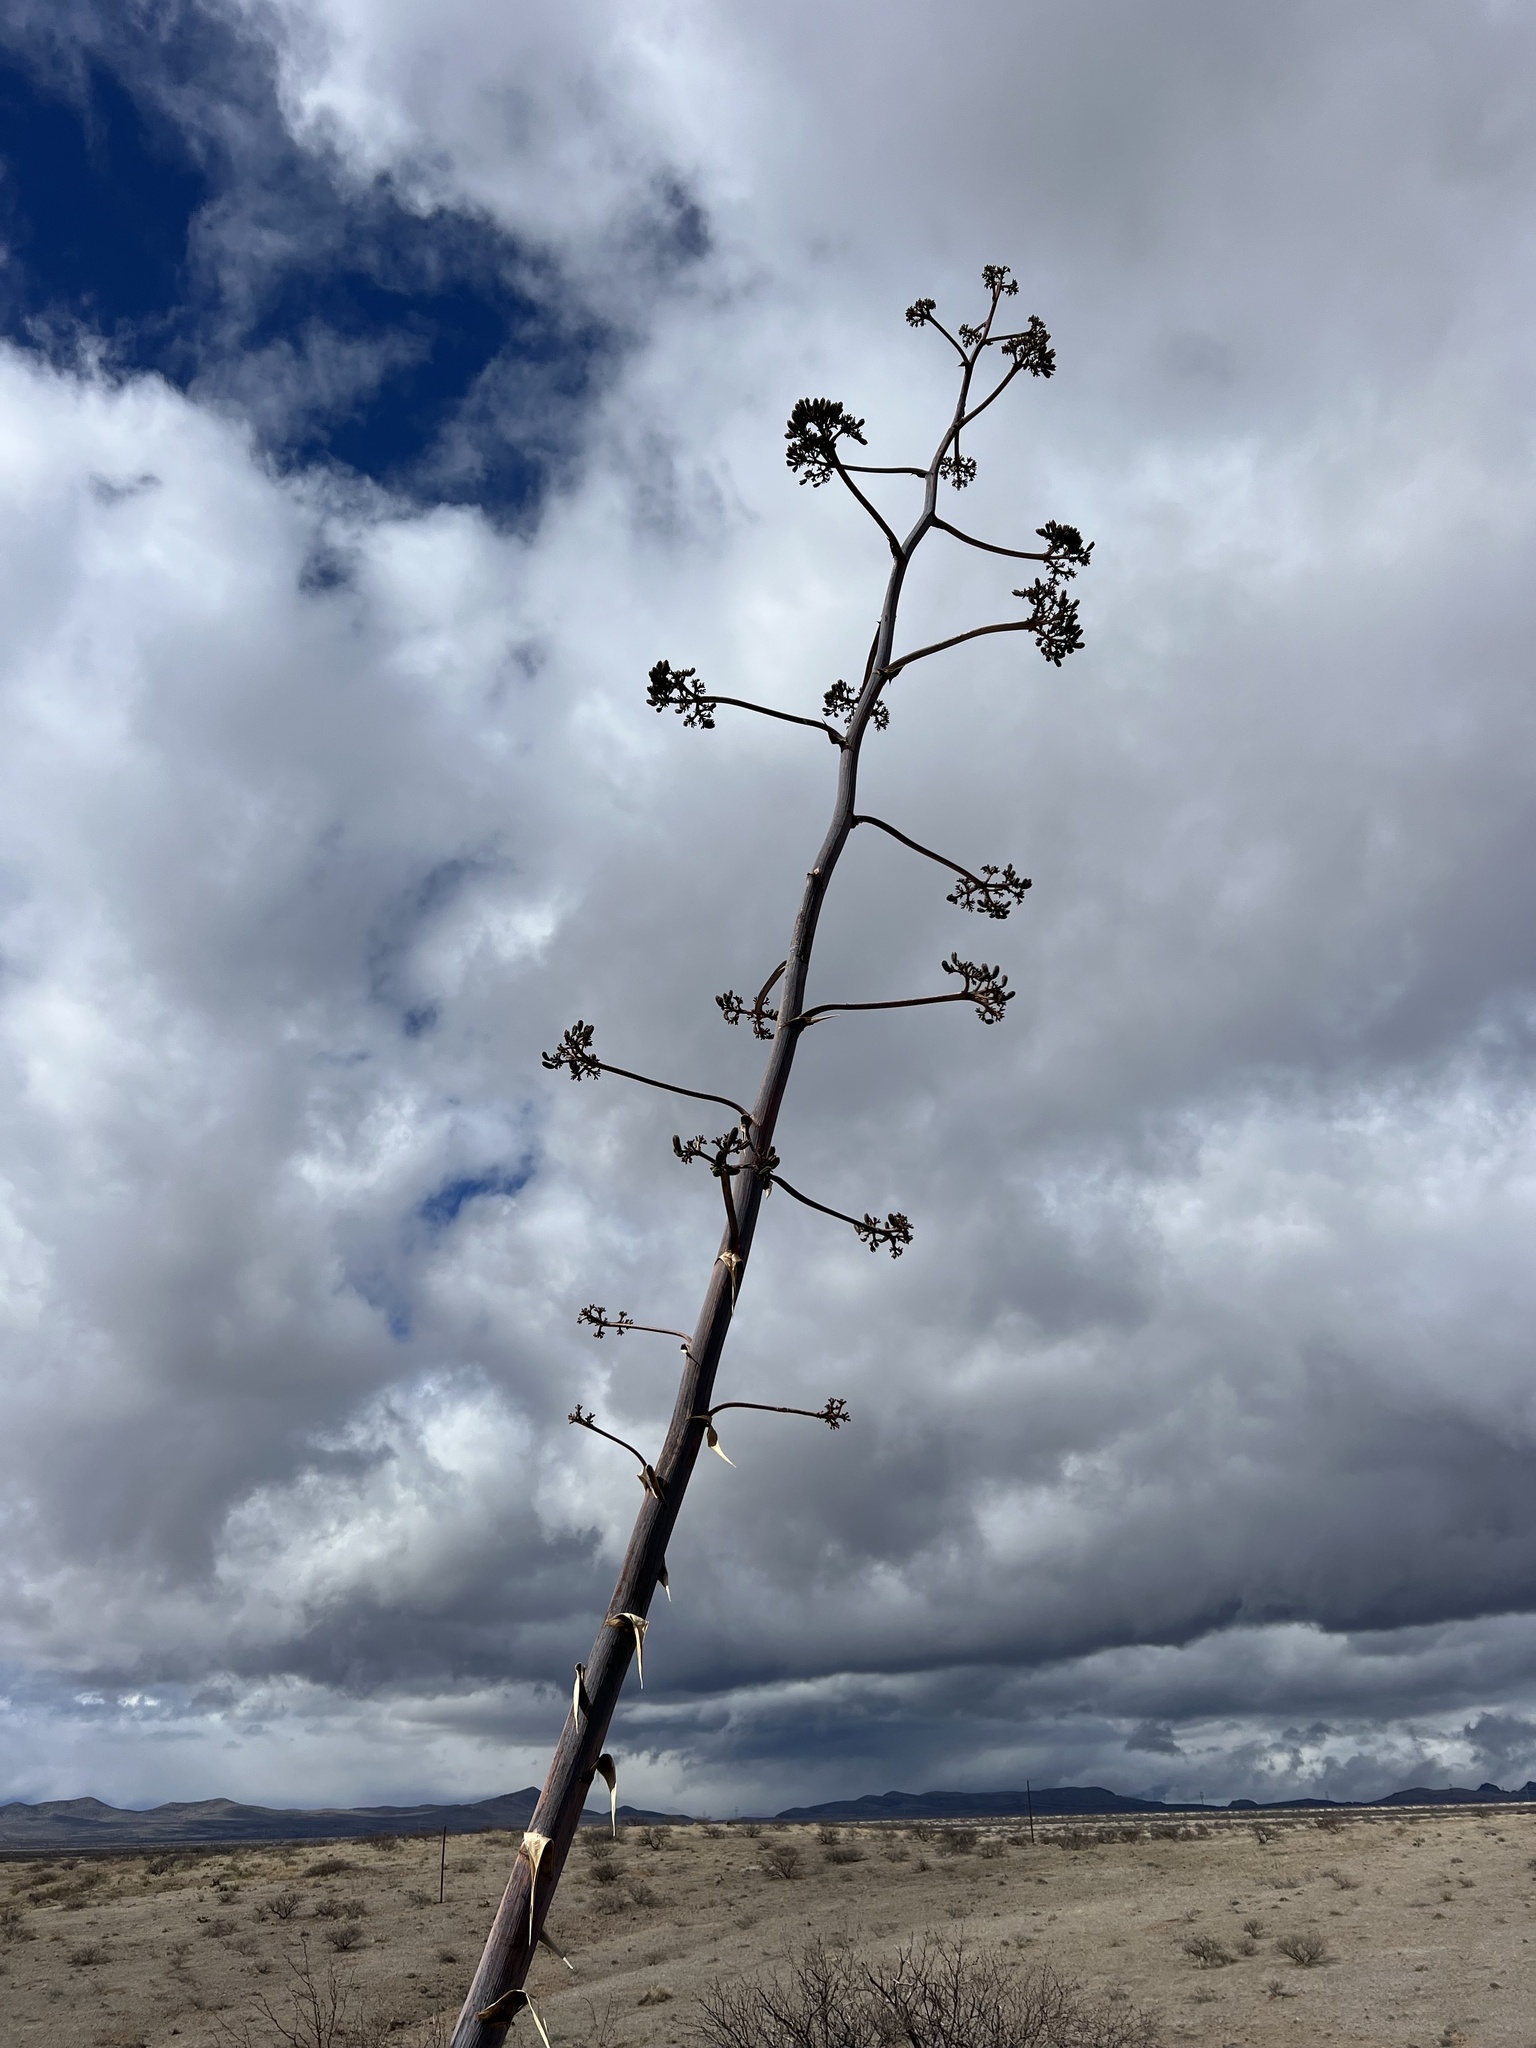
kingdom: Plantae
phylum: Tracheophyta
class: Liliopsida
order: Asparagales
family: Asparagaceae
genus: Agave
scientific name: Agave palmeri
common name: Palmer agave
